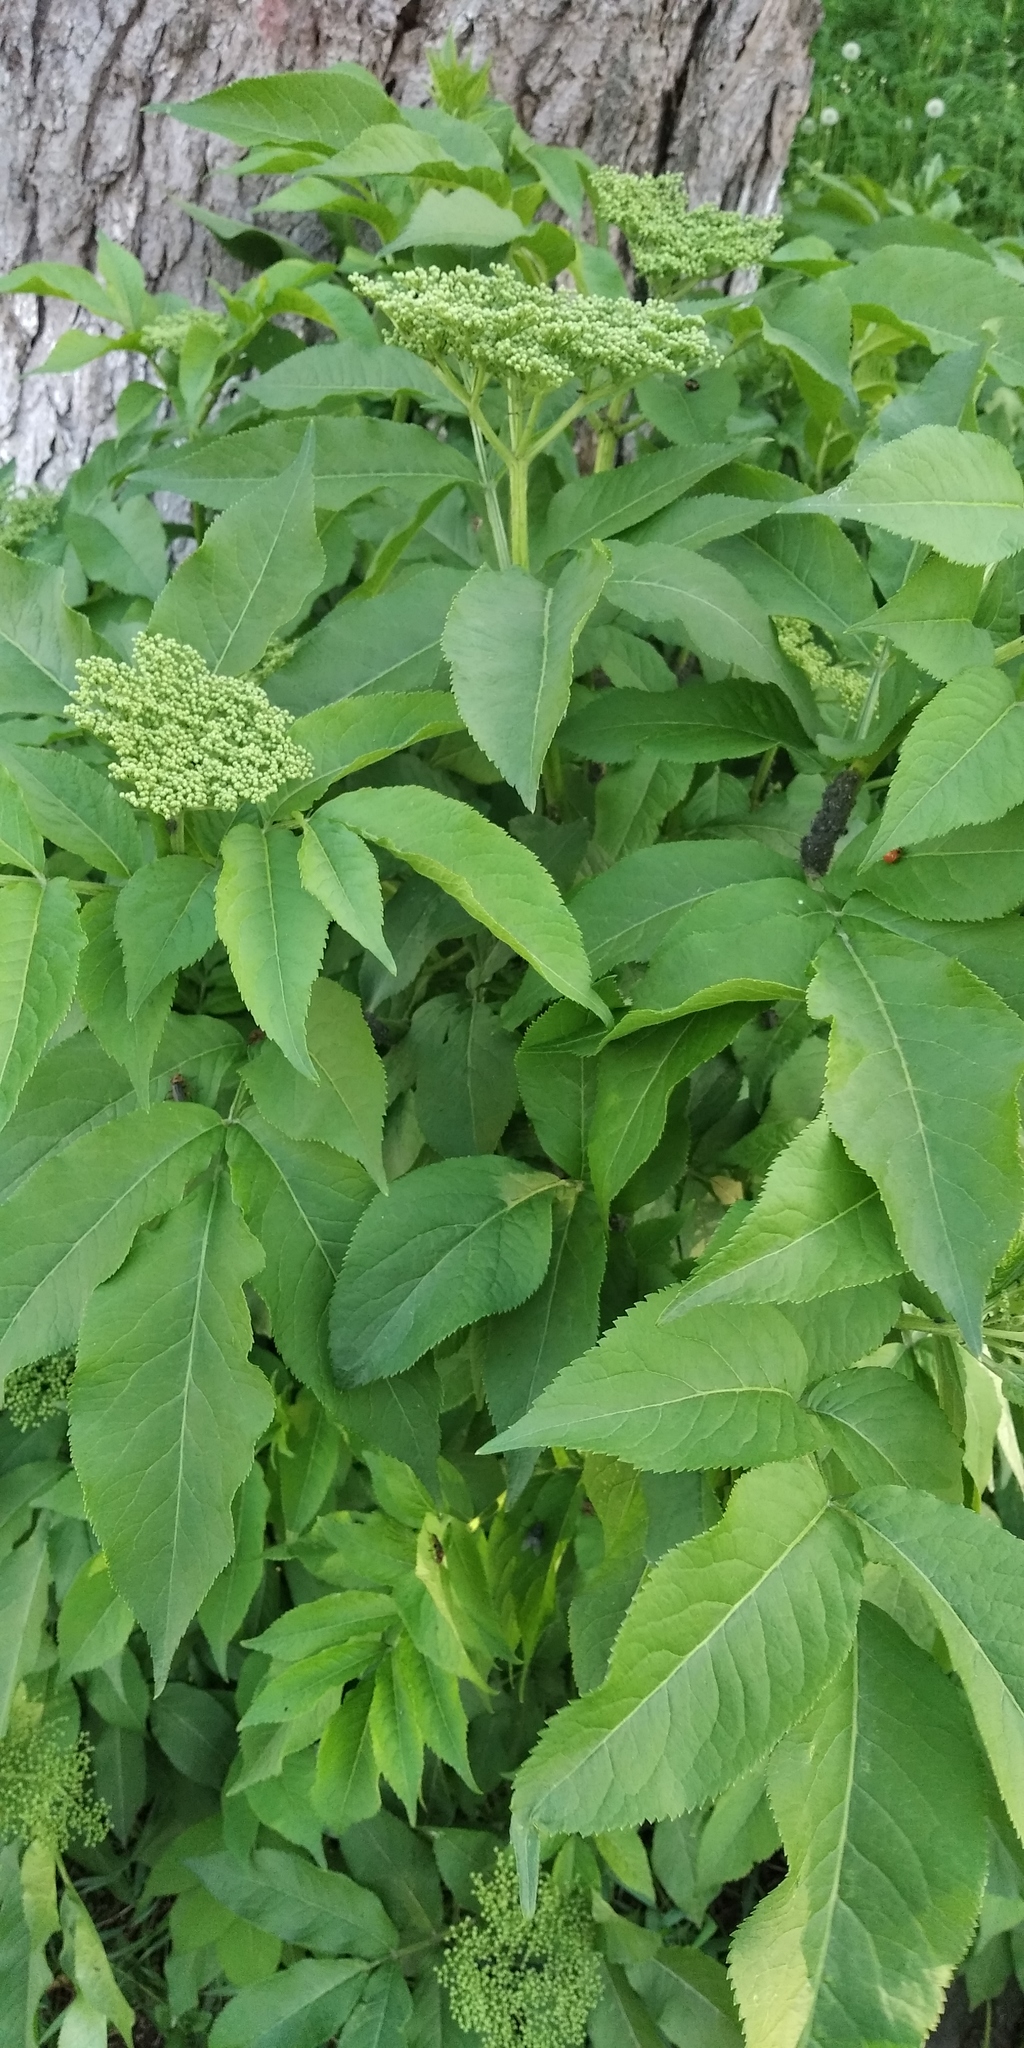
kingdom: Plantae
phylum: Tracheophyta
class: Magnoliopsida
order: Dipsacales
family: Viburnaceae
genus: Sambucus
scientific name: Sambucus nigra
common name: Elder
